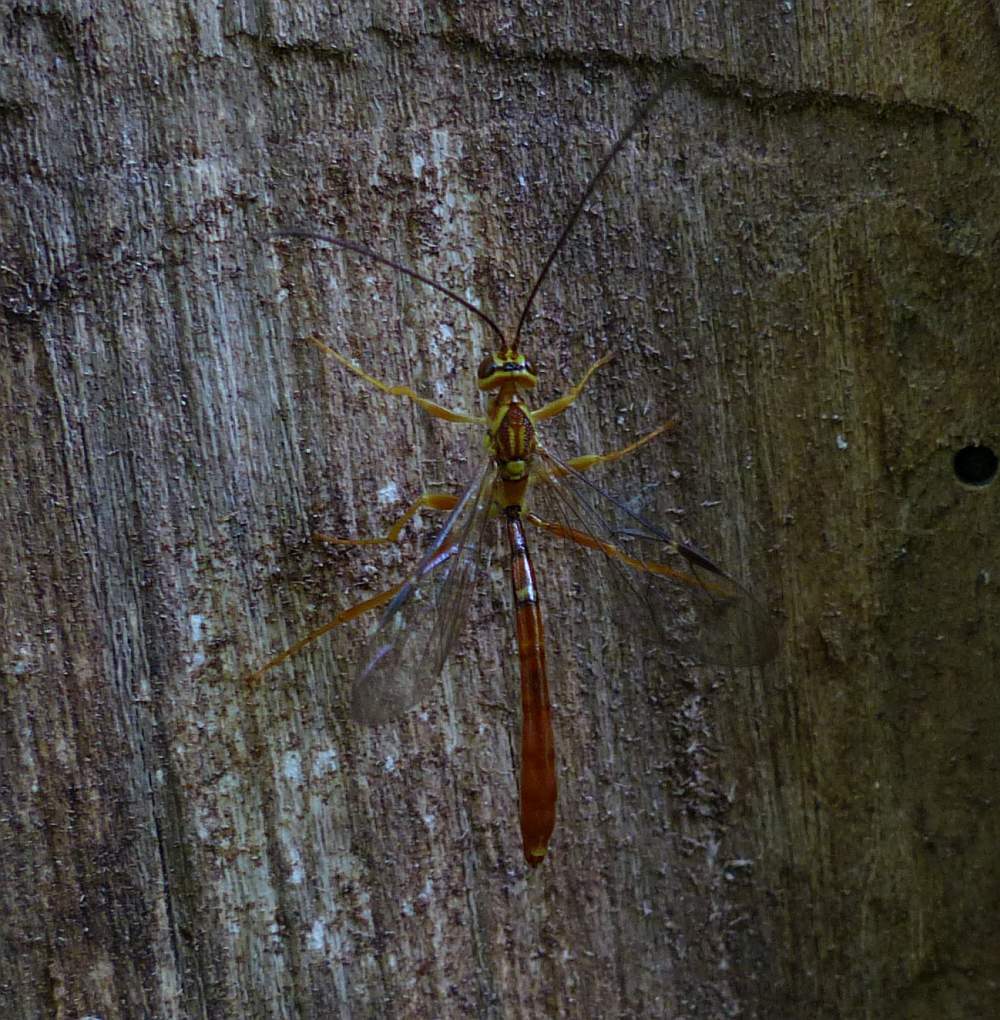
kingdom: Animalia
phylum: Arthropoda
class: Insecta
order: Hymenoptera
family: Ichneumonidae
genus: Megarhyssa
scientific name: Megarhyssa greenei
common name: Greene's giant ichneumonid wasp
